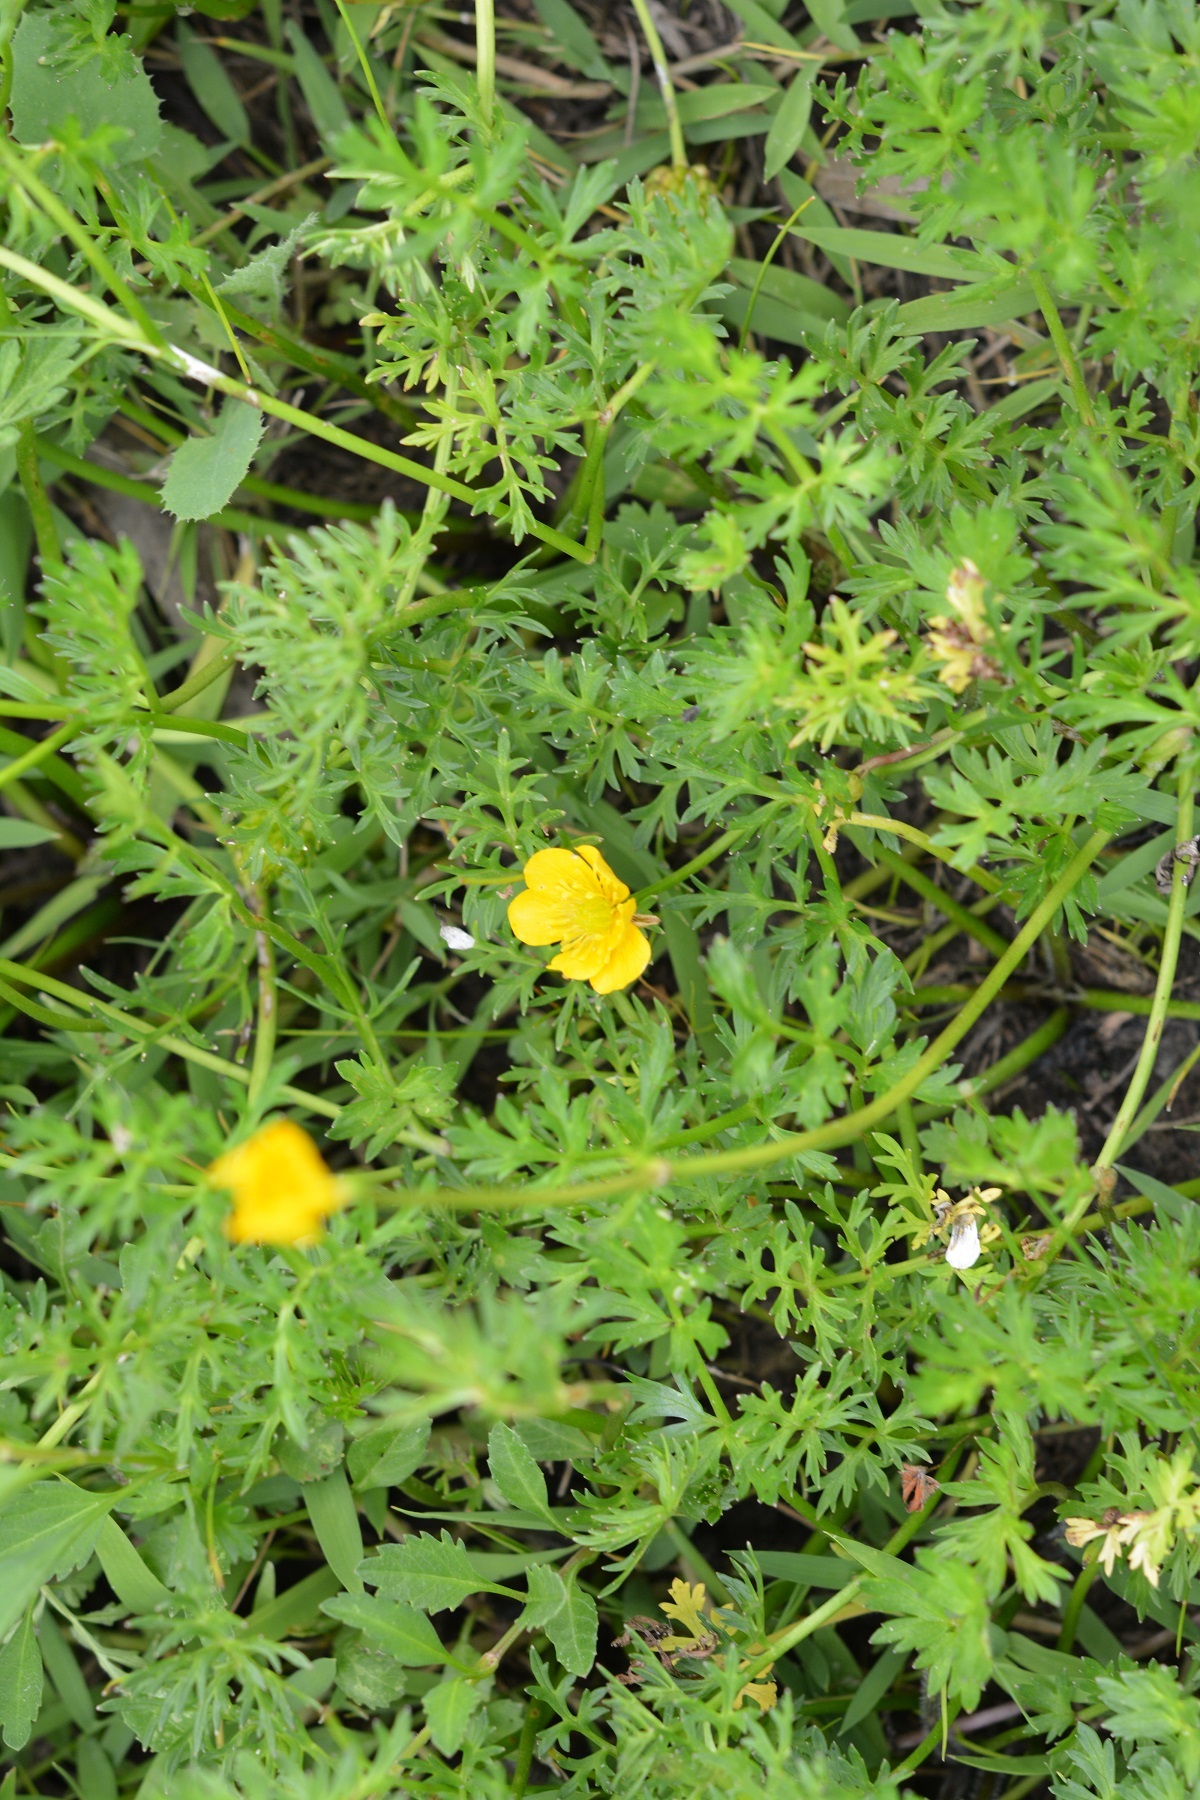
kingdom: Plantae
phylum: Tracheophyta
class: Magnoliopsida
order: Ranunculales
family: Ranunculaceae
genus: Ranunculus
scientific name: Ranunculus pilosus
